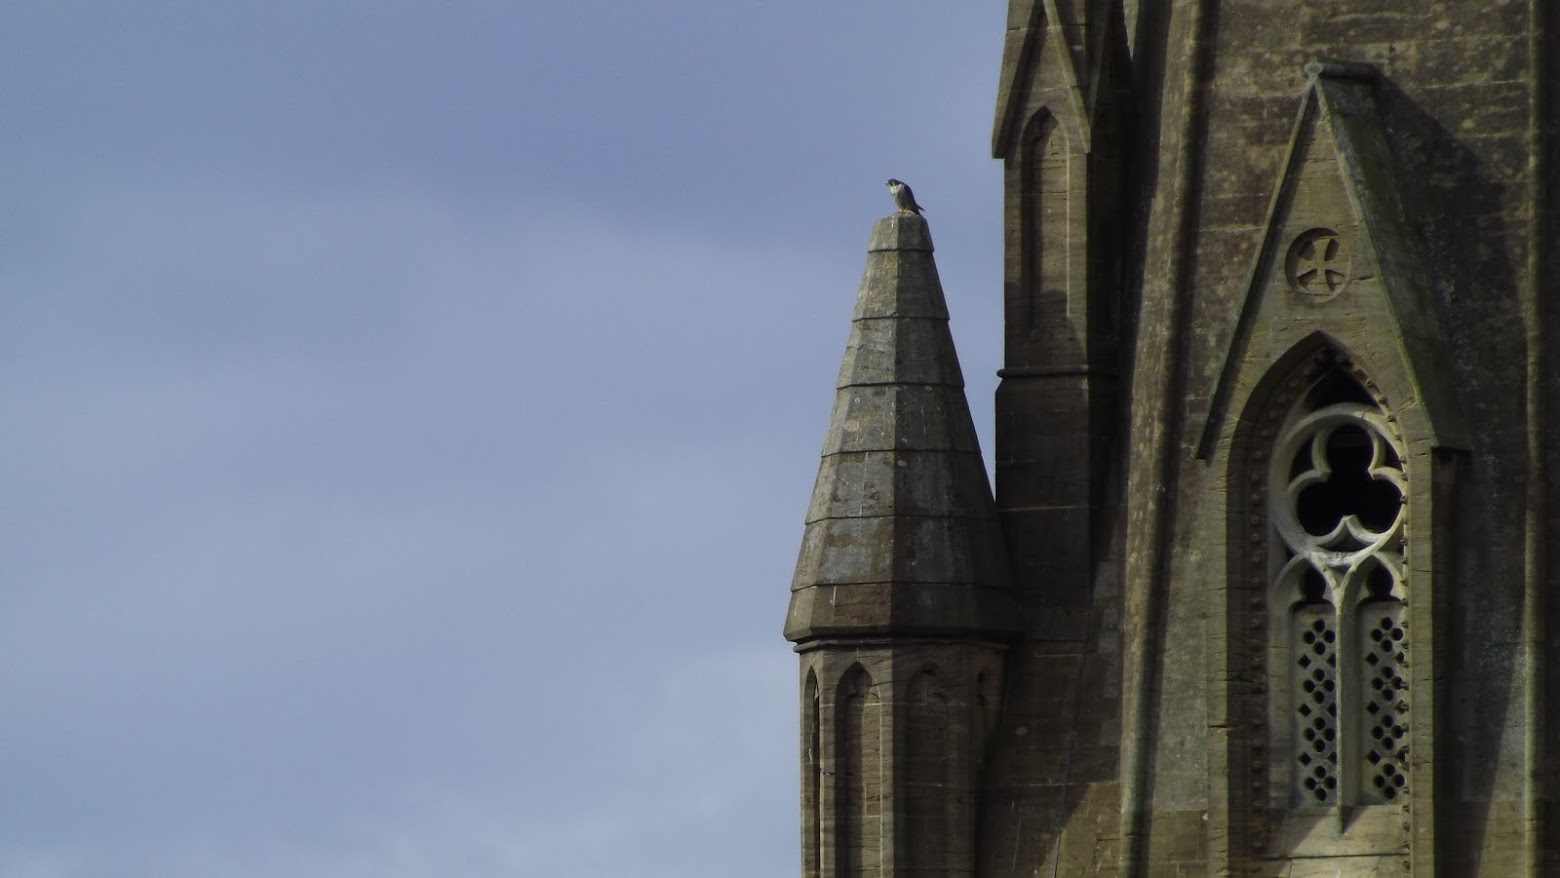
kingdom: Animalia
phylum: Chordata
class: Aves
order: Falconiformes
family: Falconidae
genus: Falco
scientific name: Falco peregrinus
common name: Peregrine falcon
